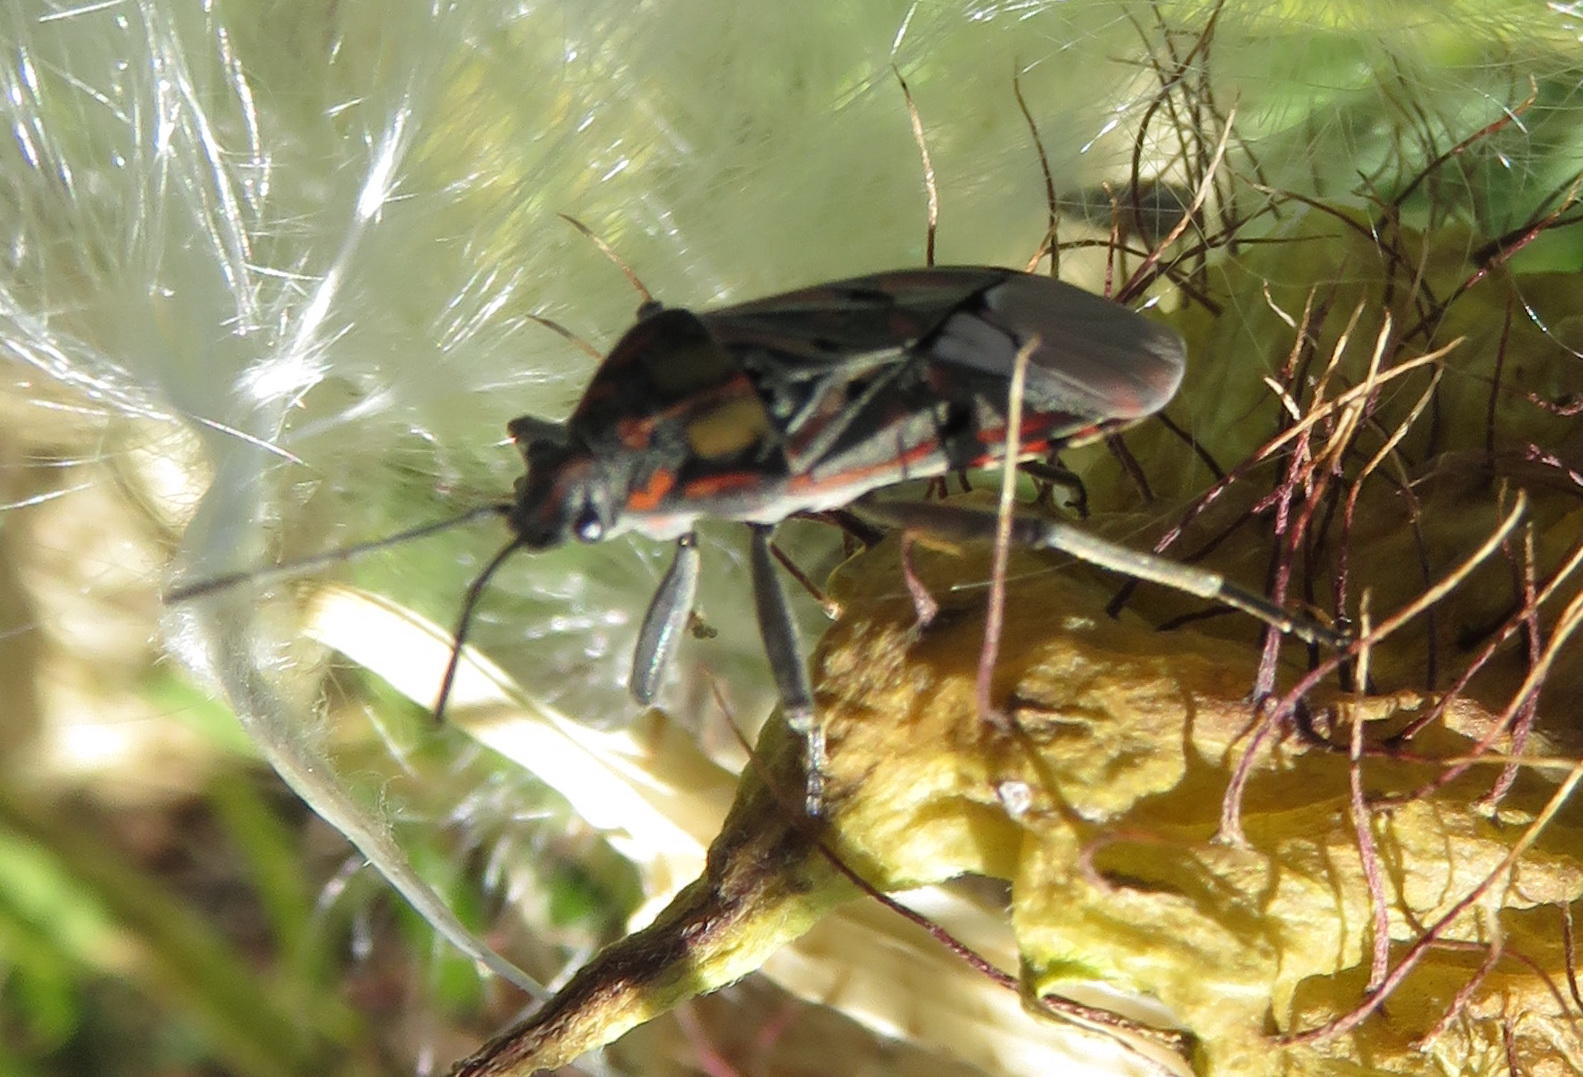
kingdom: Animalia
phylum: Arthropoda
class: Insecta
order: Hemiptera
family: Lygaeidae
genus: Spilostethus
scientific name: Spilostethus pandurus
